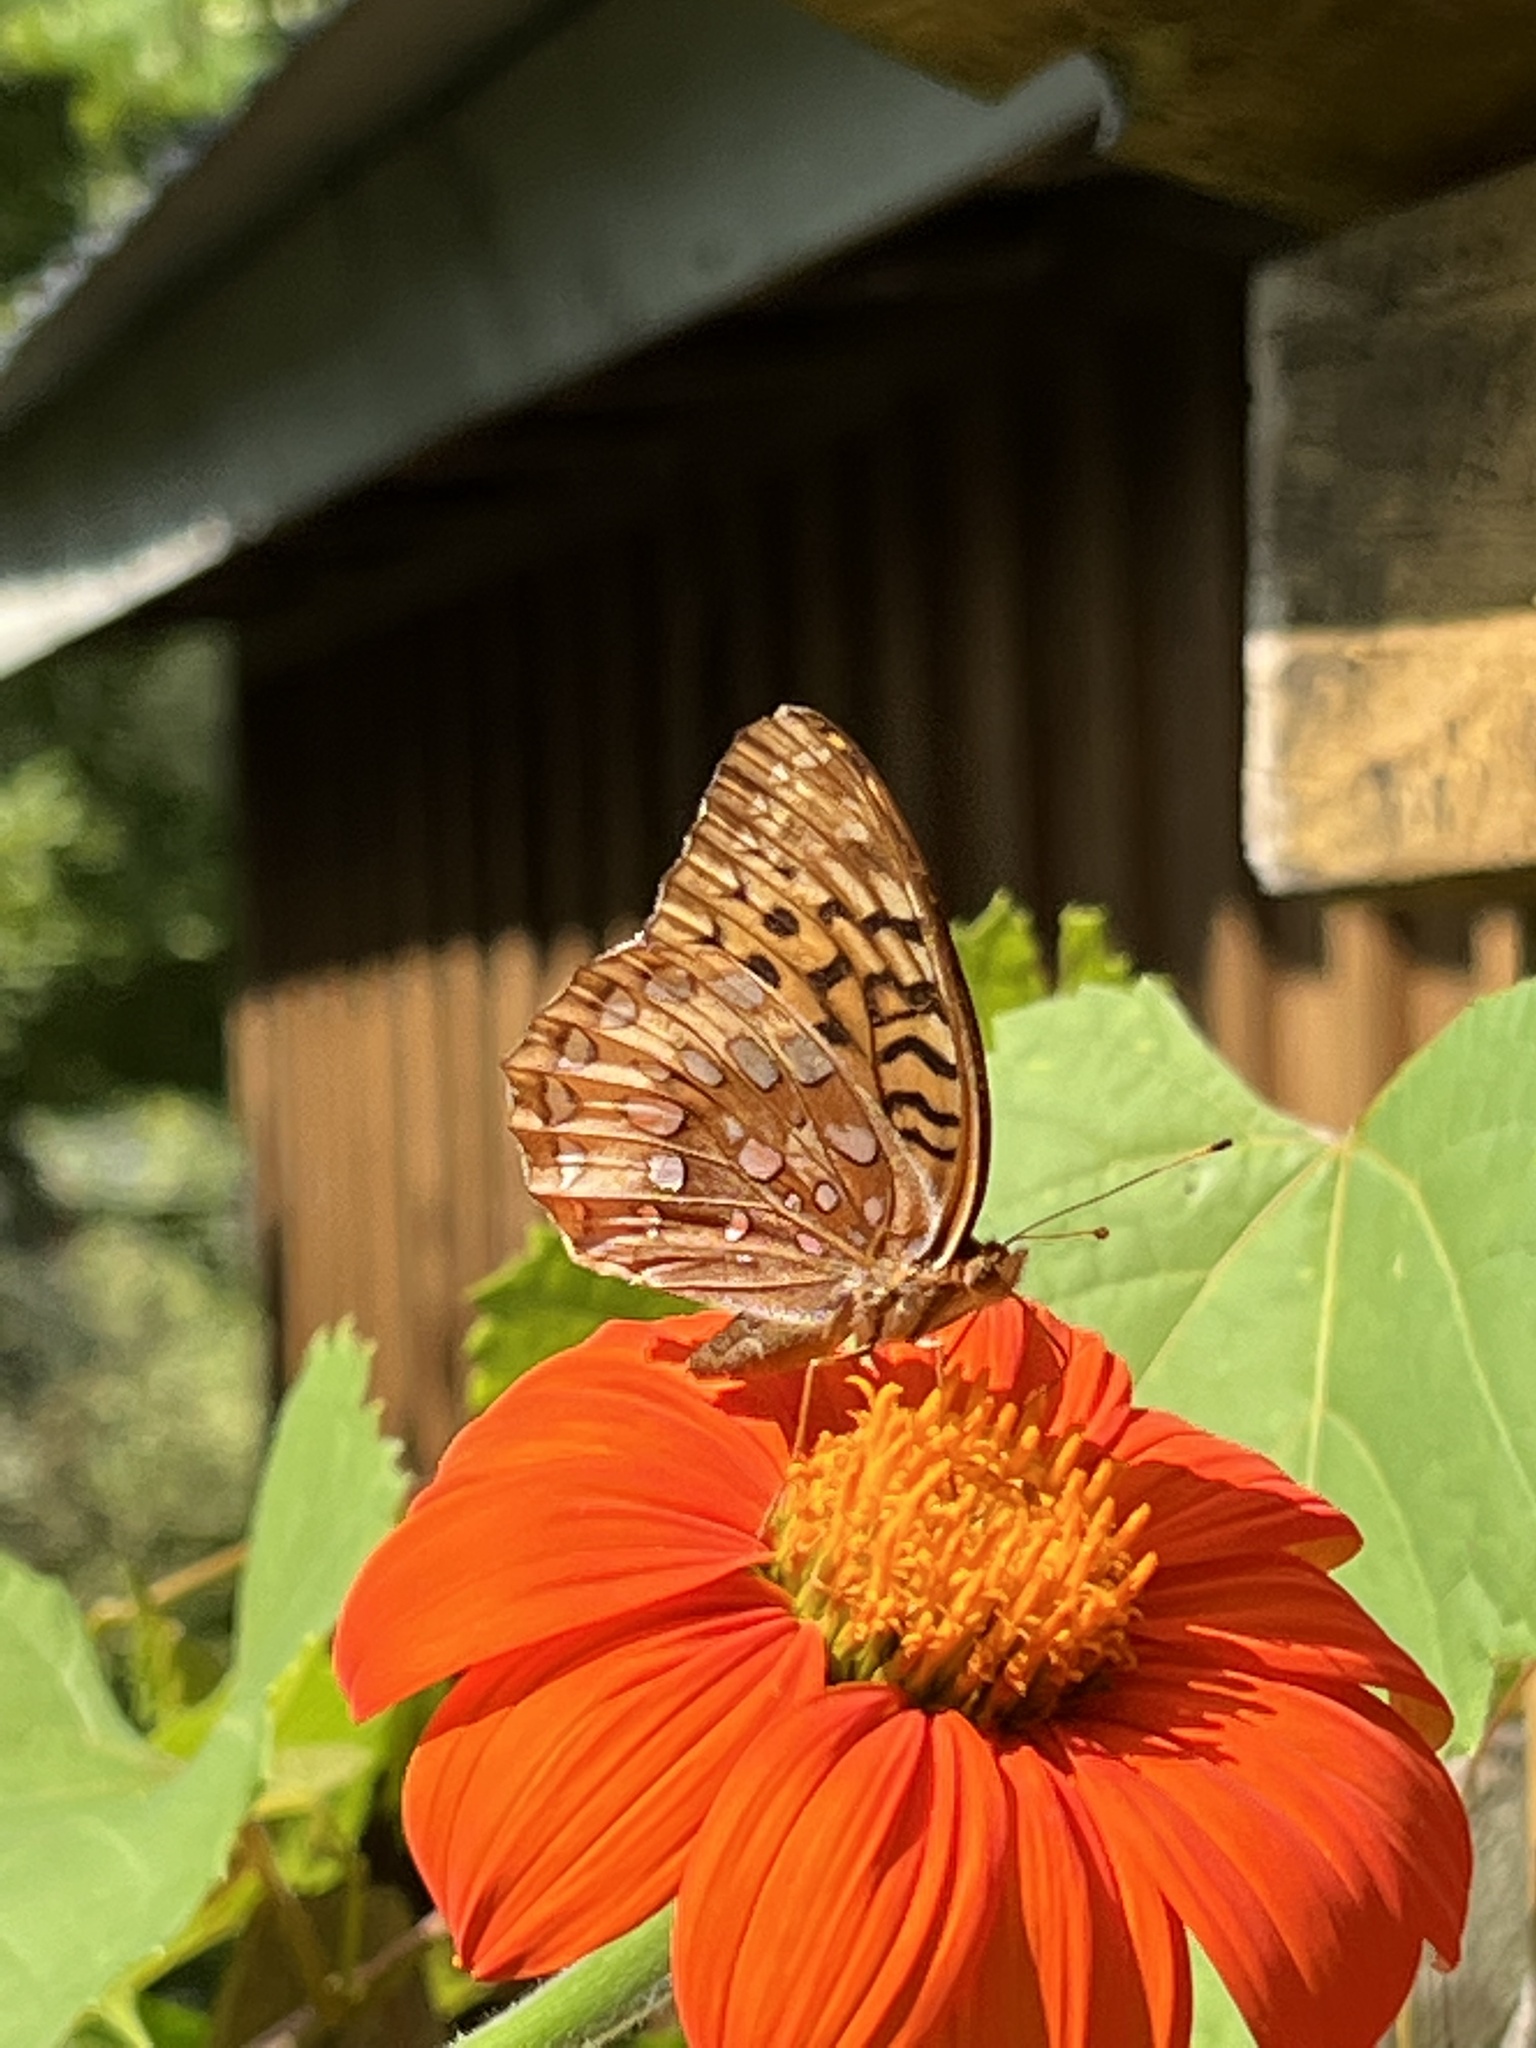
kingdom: Animalia
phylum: Arthropoda
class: Insecta
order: Lepidoptera
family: Nymphalidae
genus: Speyeria
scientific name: Speyeria cybele
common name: Great spangled fritillary
